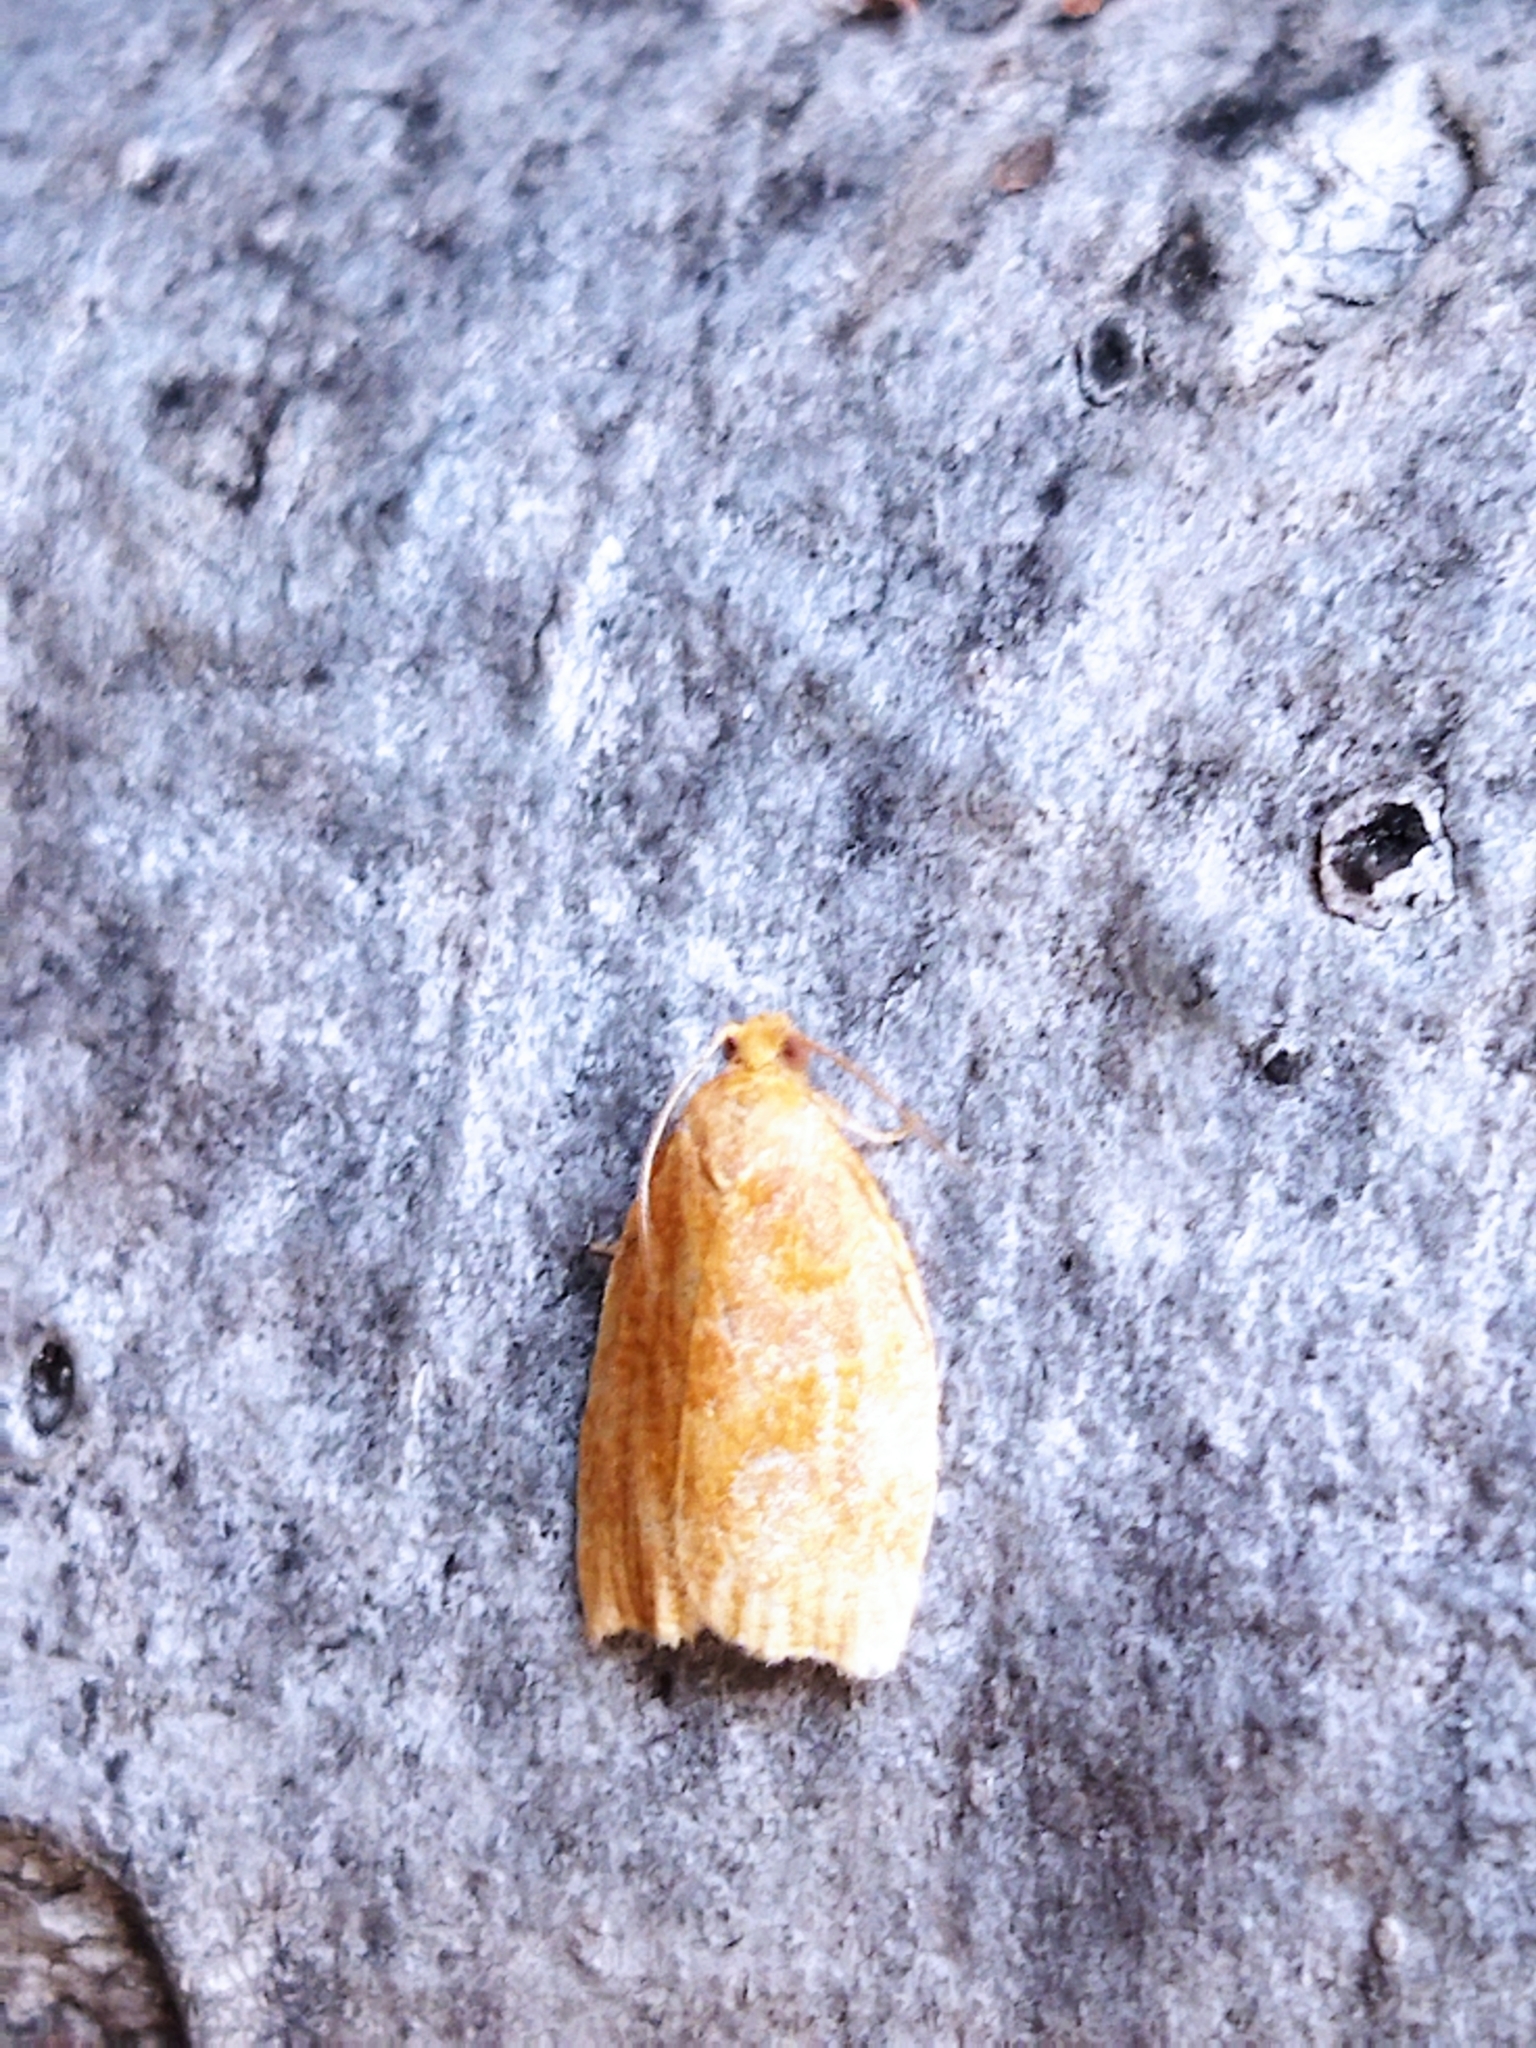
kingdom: Animalia
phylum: Arthropoda
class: Insecta
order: Lepidoptera
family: Tortricidae
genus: Archips
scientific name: Archips rosana
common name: Rose tortrix
